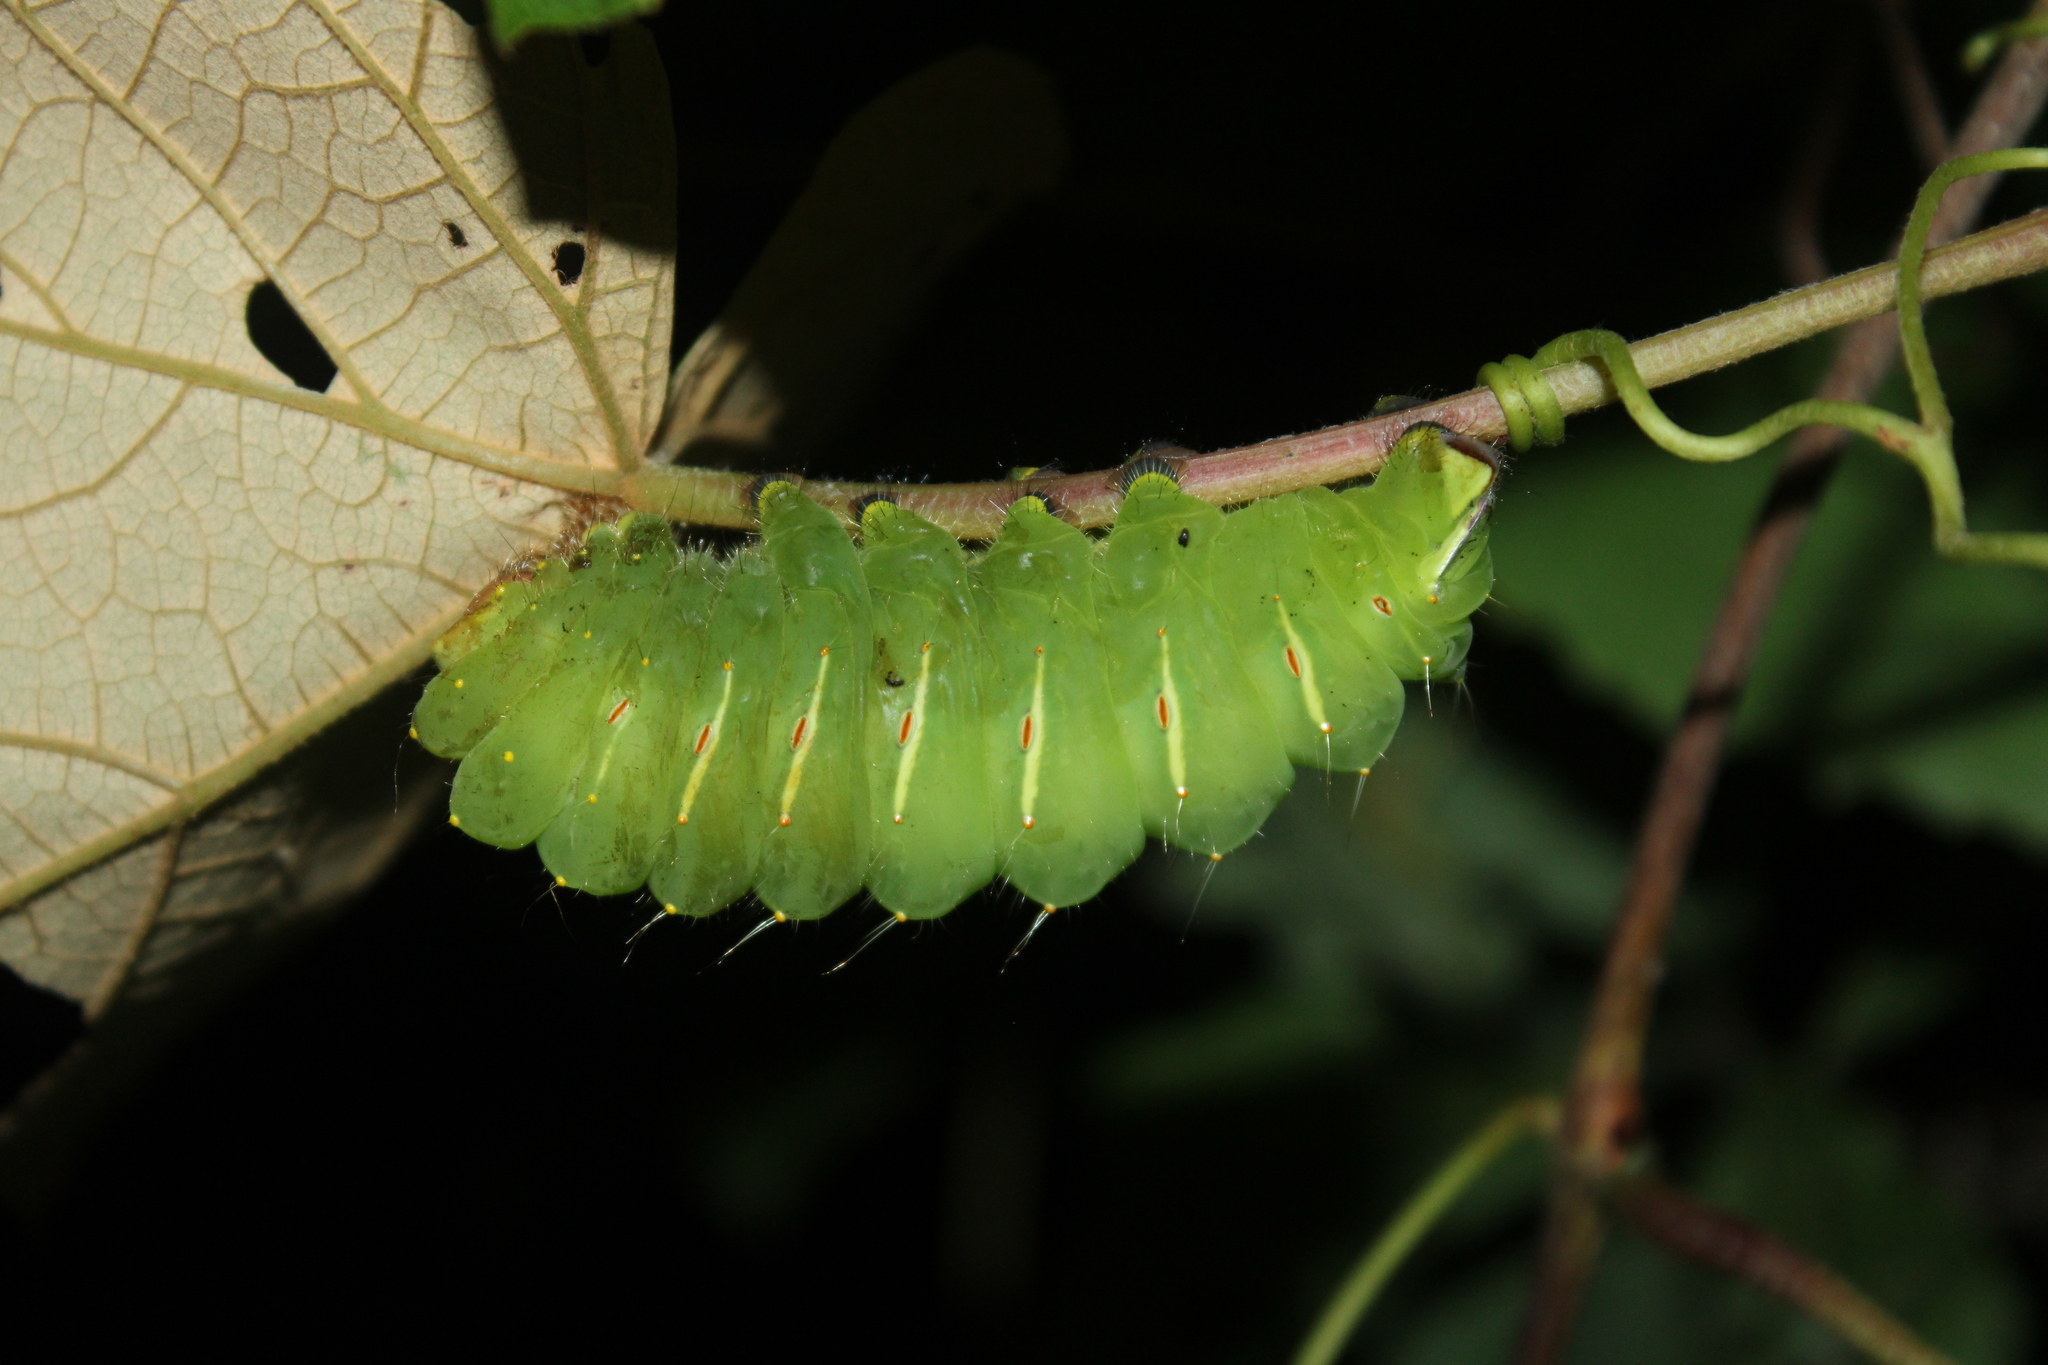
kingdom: Animalia
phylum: Arthropoda
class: Insecta
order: Lepidoptera
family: Saturniidae
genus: Antheraea
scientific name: Antheraea polyphemus
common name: Polyphemus moth
